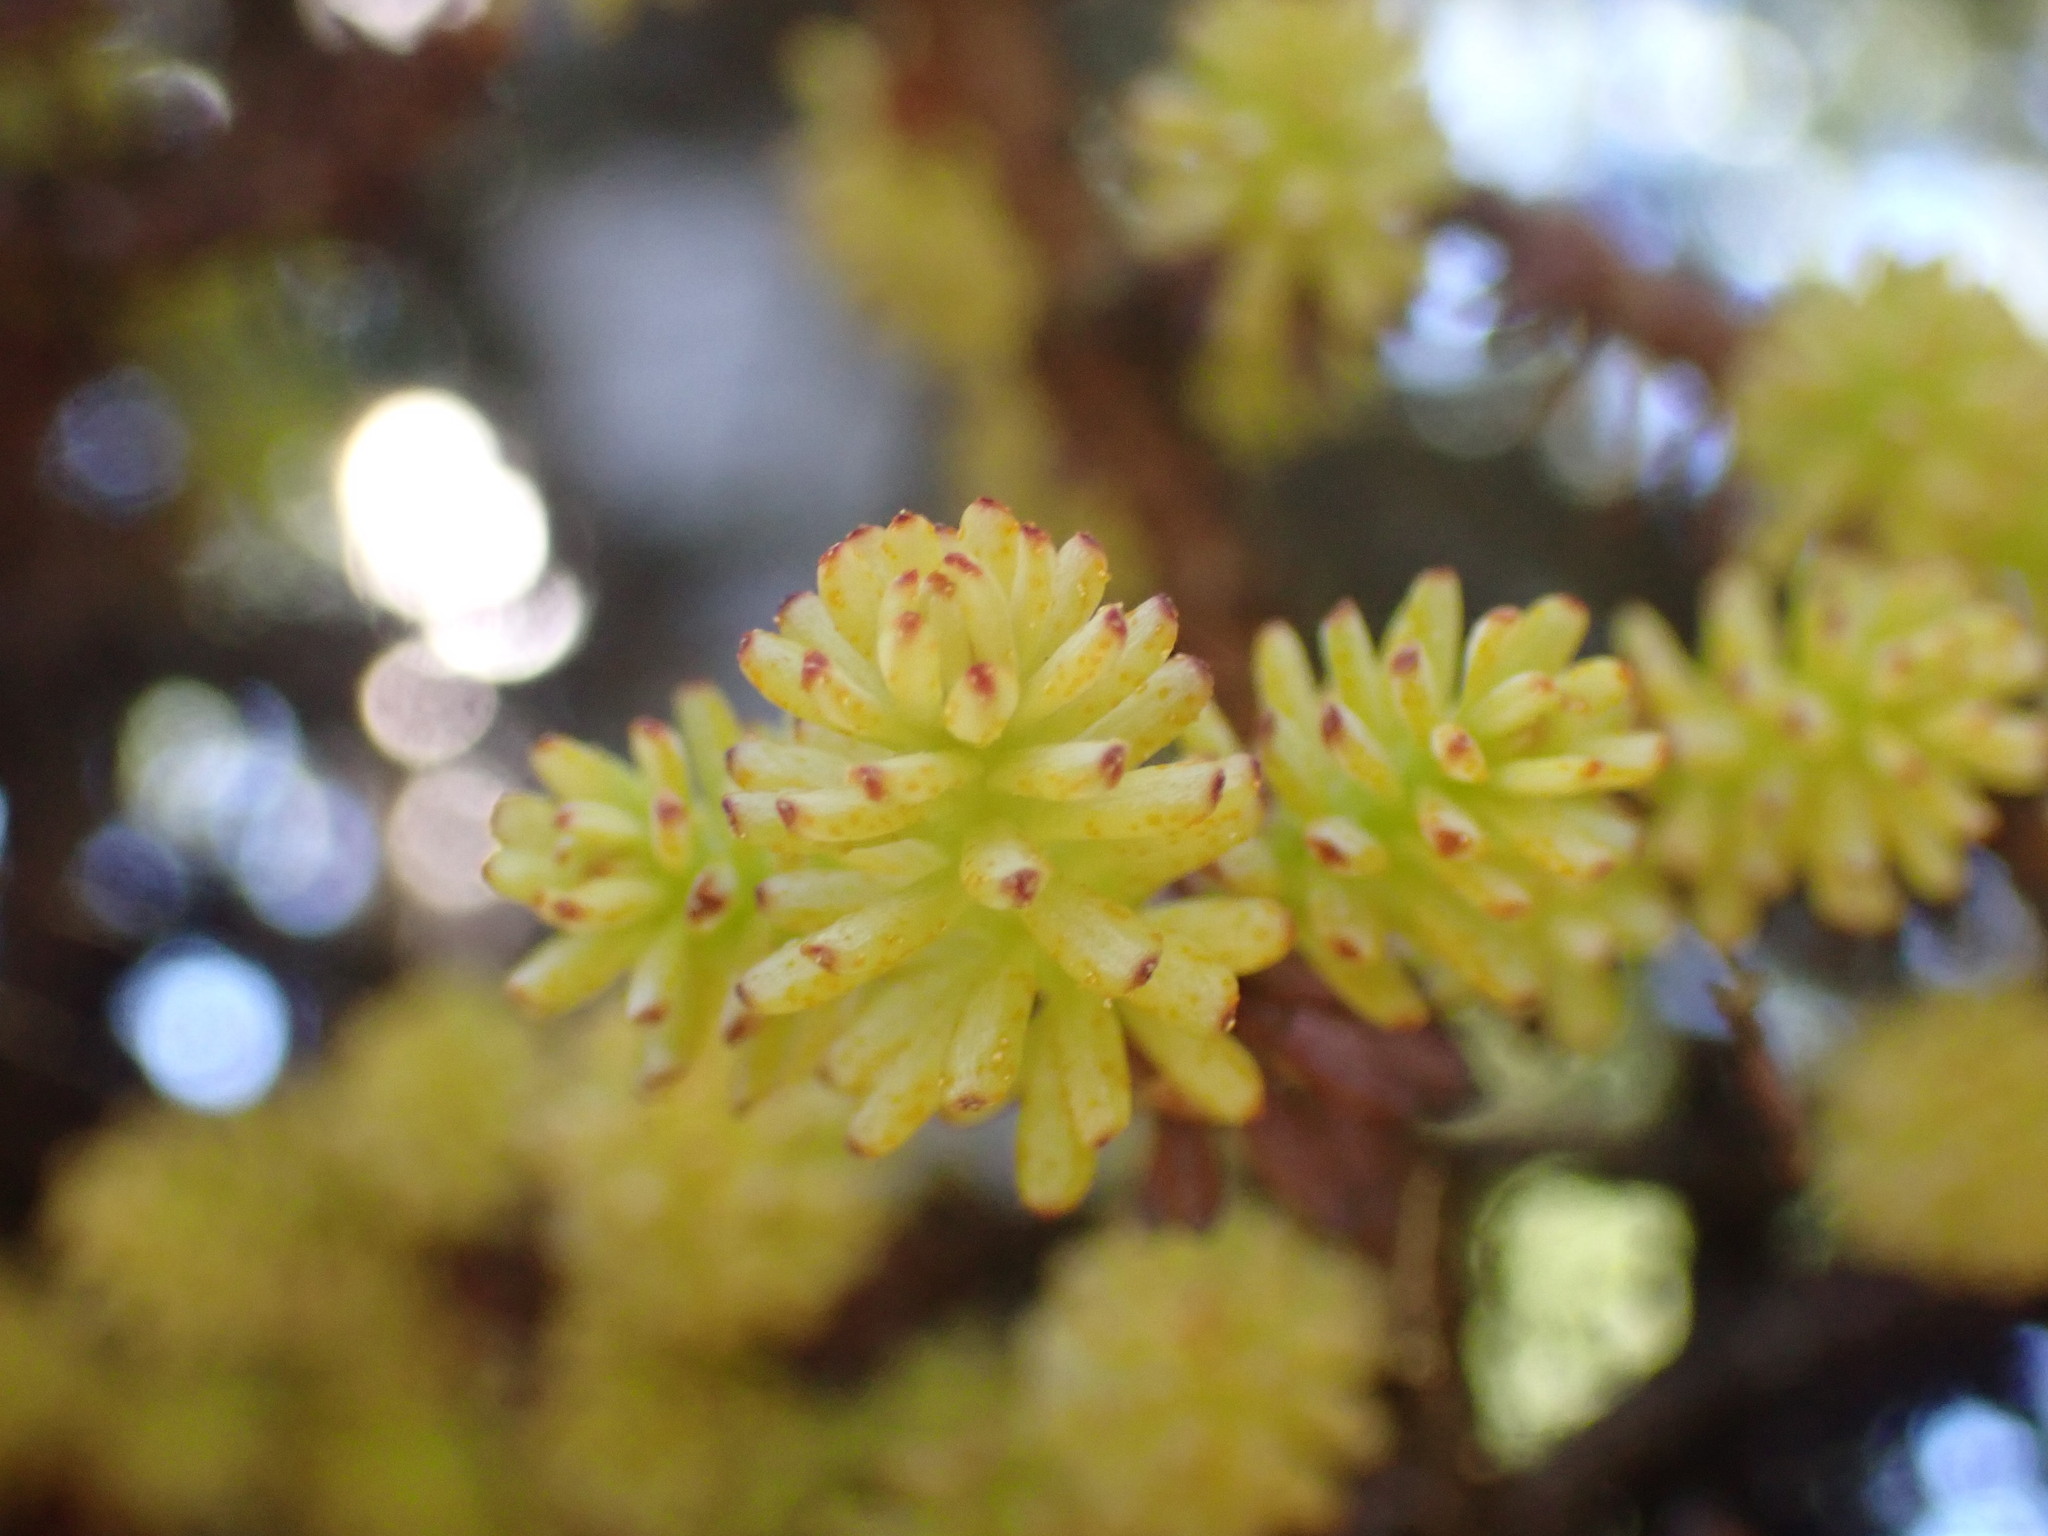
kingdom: Fungi
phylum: Basidiomycota
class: Pucciniomycetes
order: Pucciniales
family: Coleosporiaceae
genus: Chrysomyxa
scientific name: Chrysomyxa arctostaphyli
